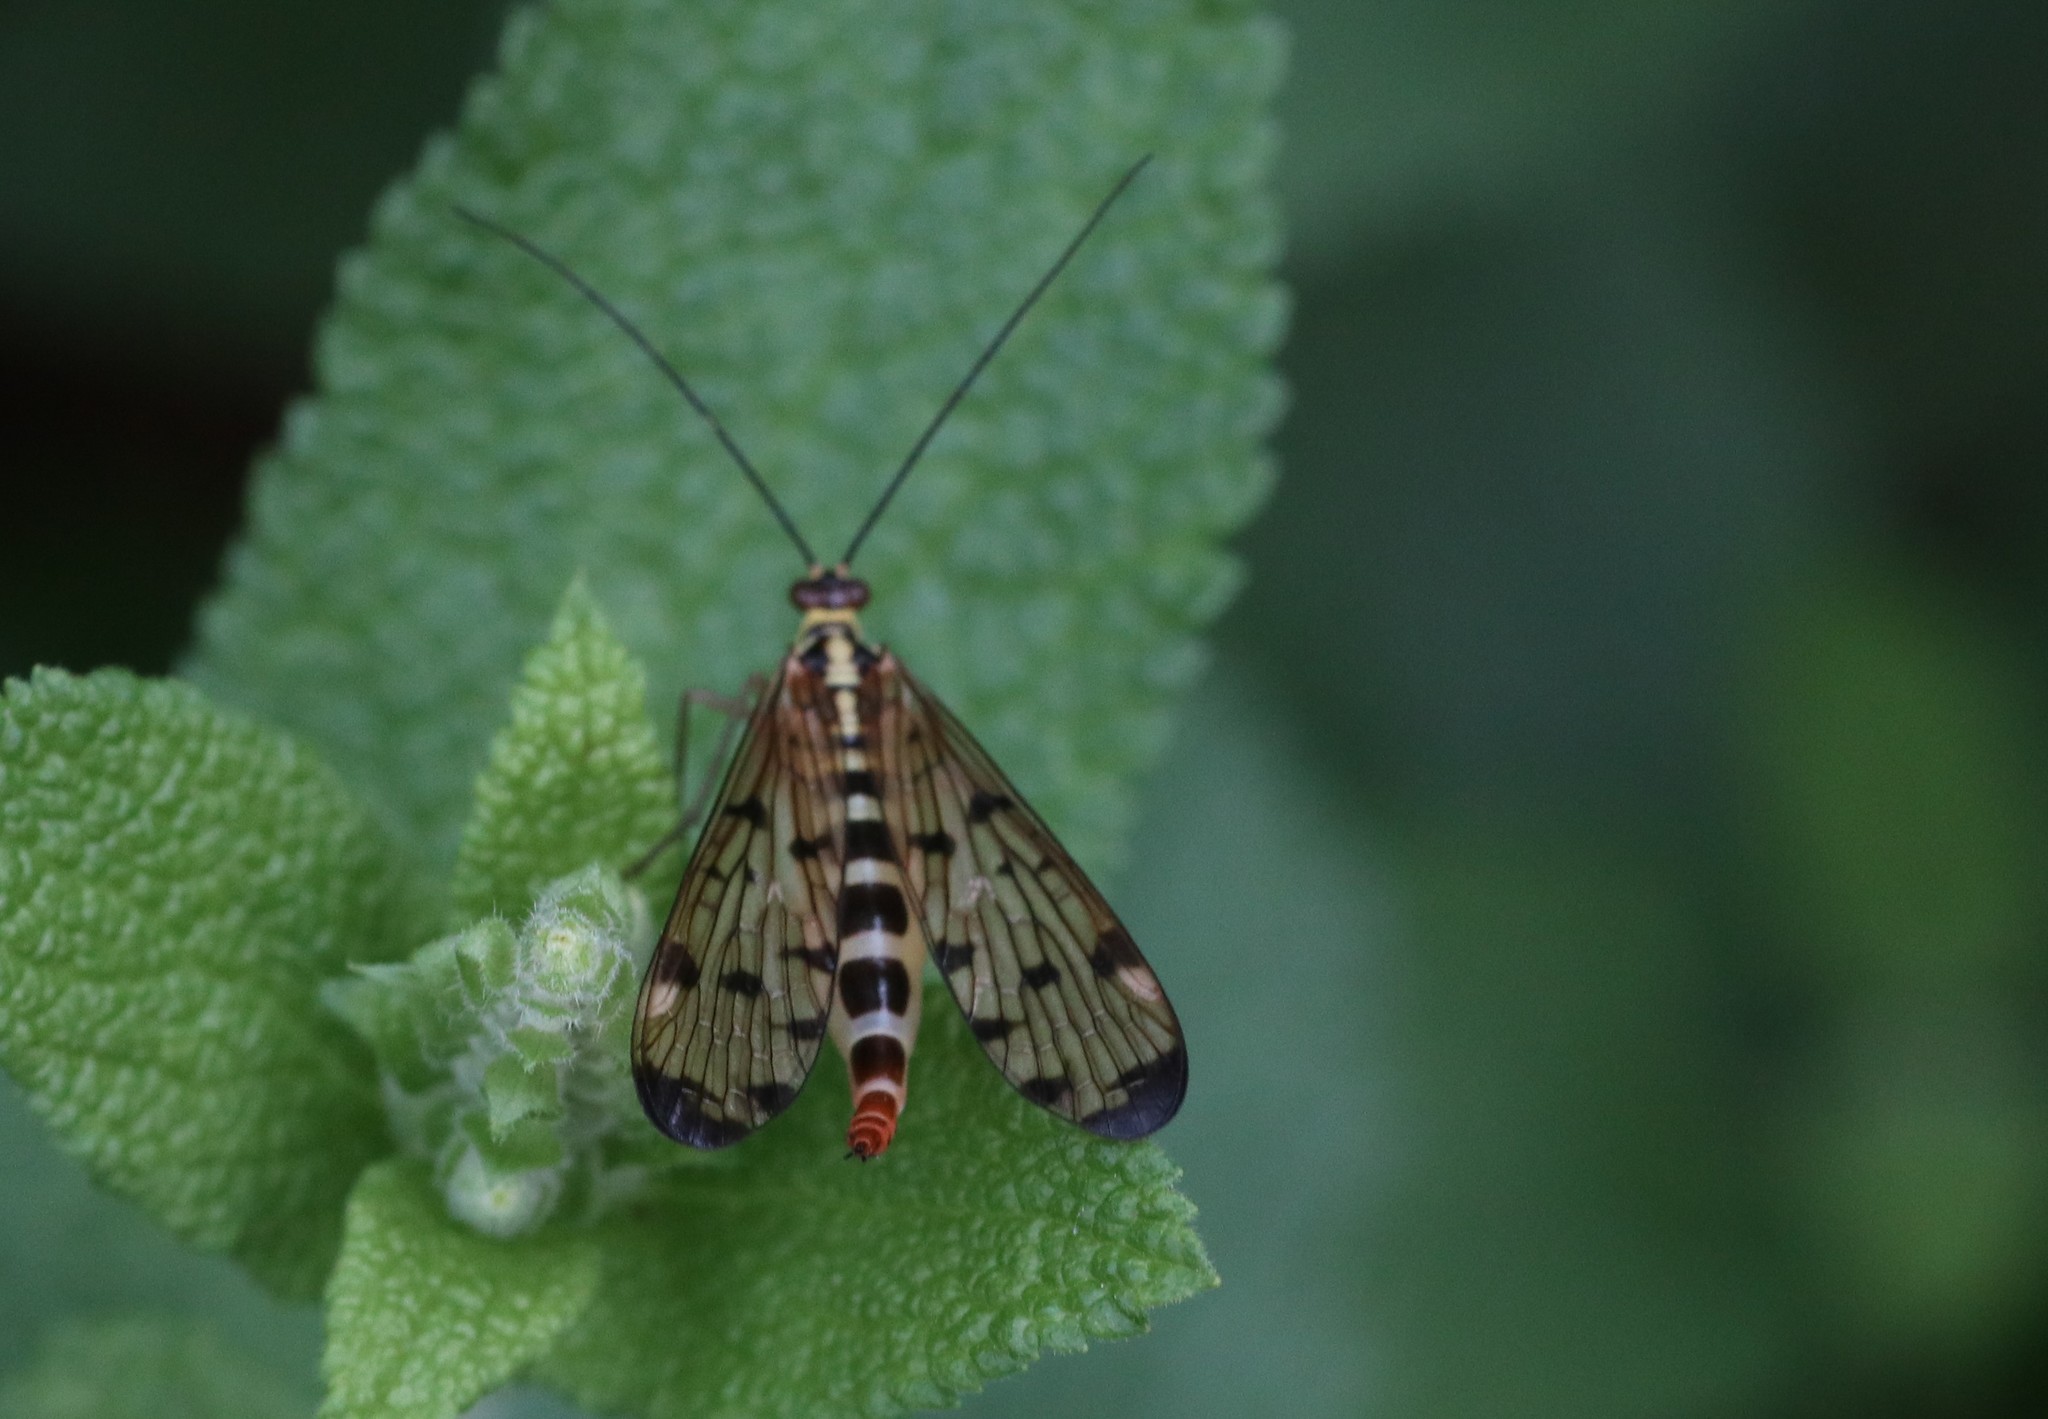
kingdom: Animalia
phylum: Arthropoda
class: Insecta
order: Mecoptera
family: Panorpidae
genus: Panorpa
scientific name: Panorpa germanica
